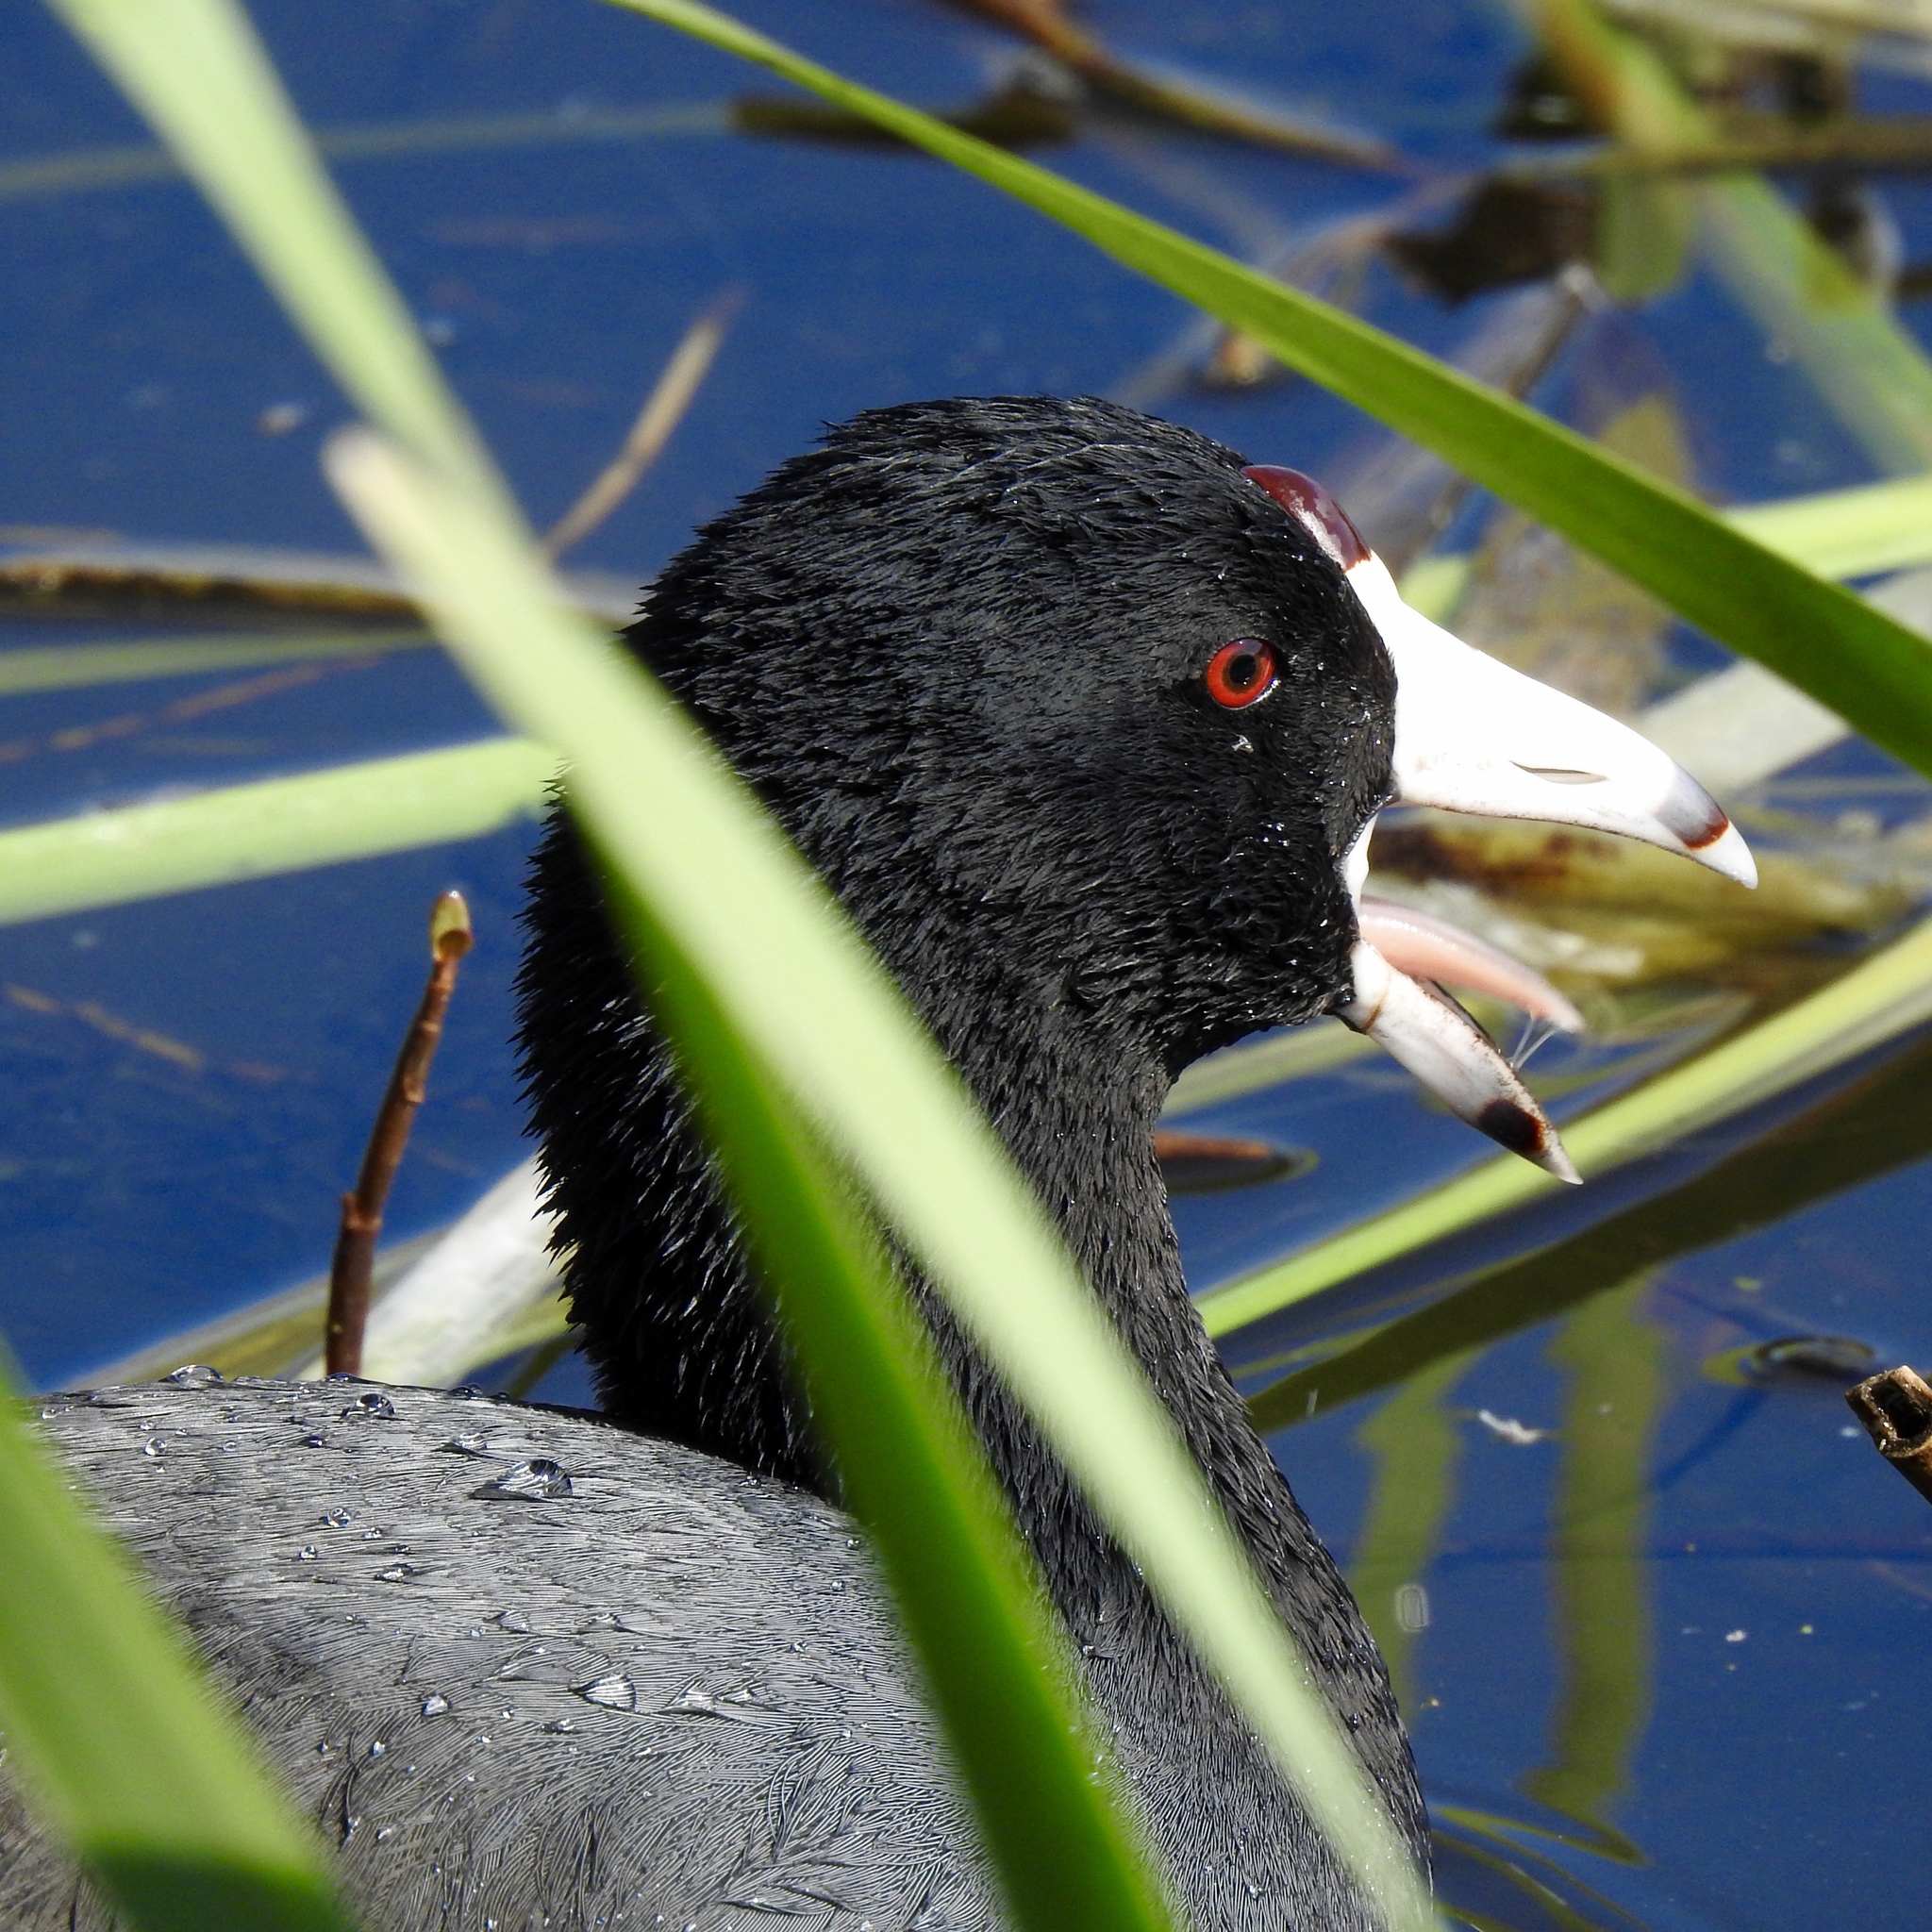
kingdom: Animalia
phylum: Chordata
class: Aves
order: Gruiformes
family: Rallidae
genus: Fulica
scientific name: Fulica americana
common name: American coot
